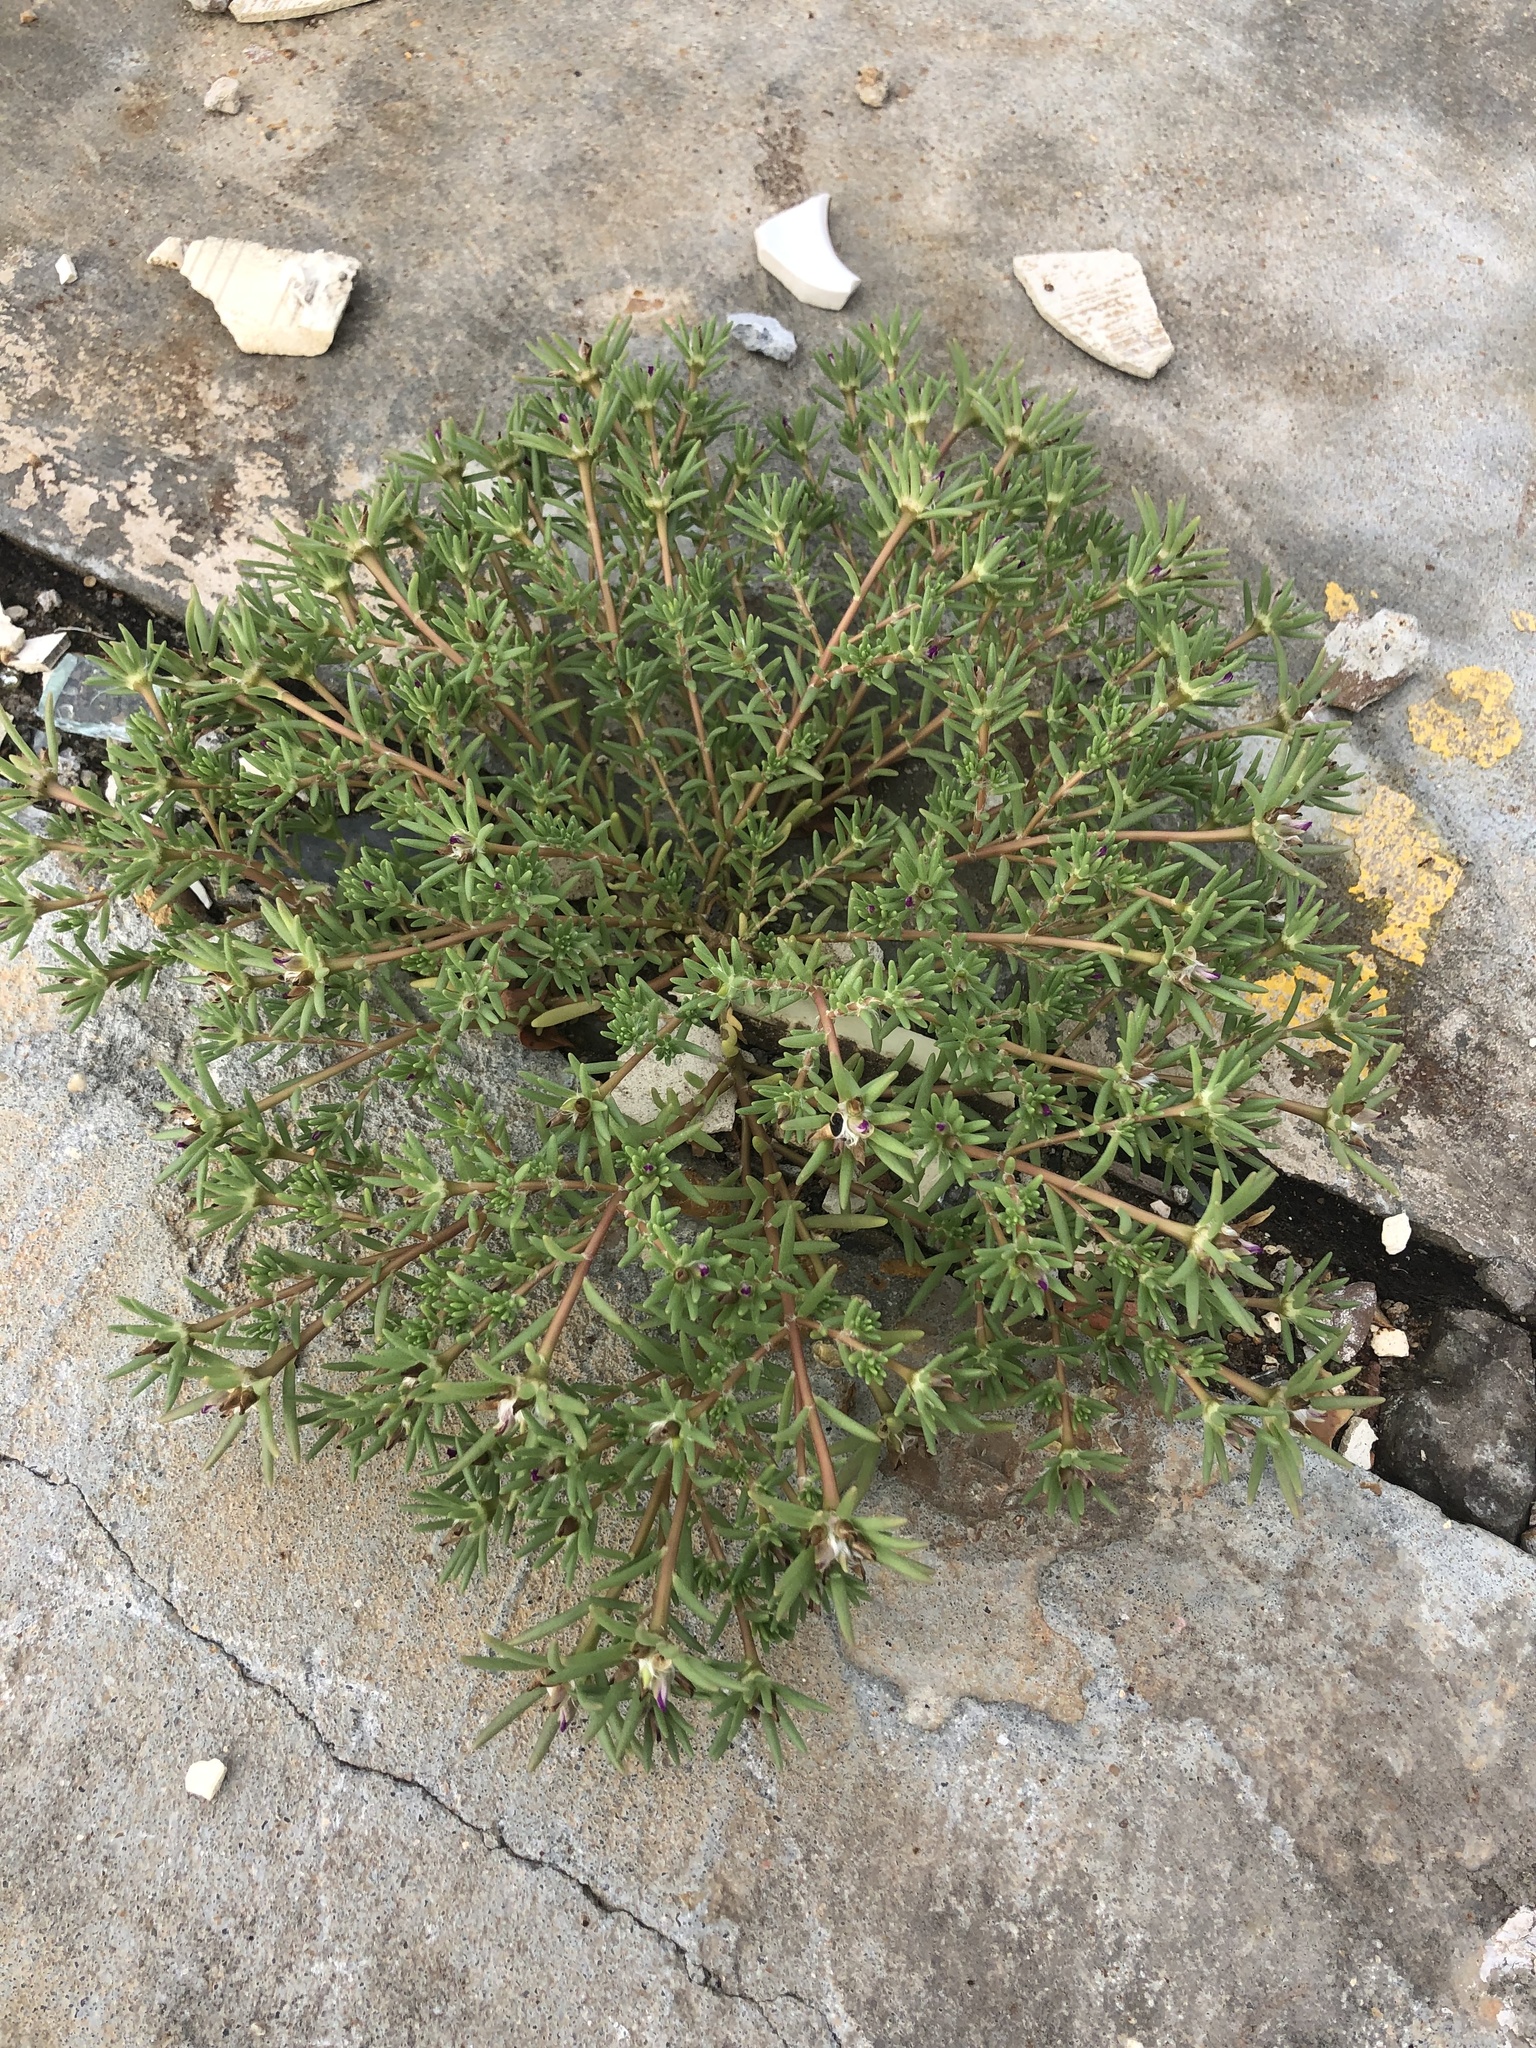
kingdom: Plantae
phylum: Tracheophyta
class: Magnoliopsida
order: Caryophyllales
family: Portulacaceae
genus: Portulaca
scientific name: Portulaca pilosa
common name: Kiss me quick
